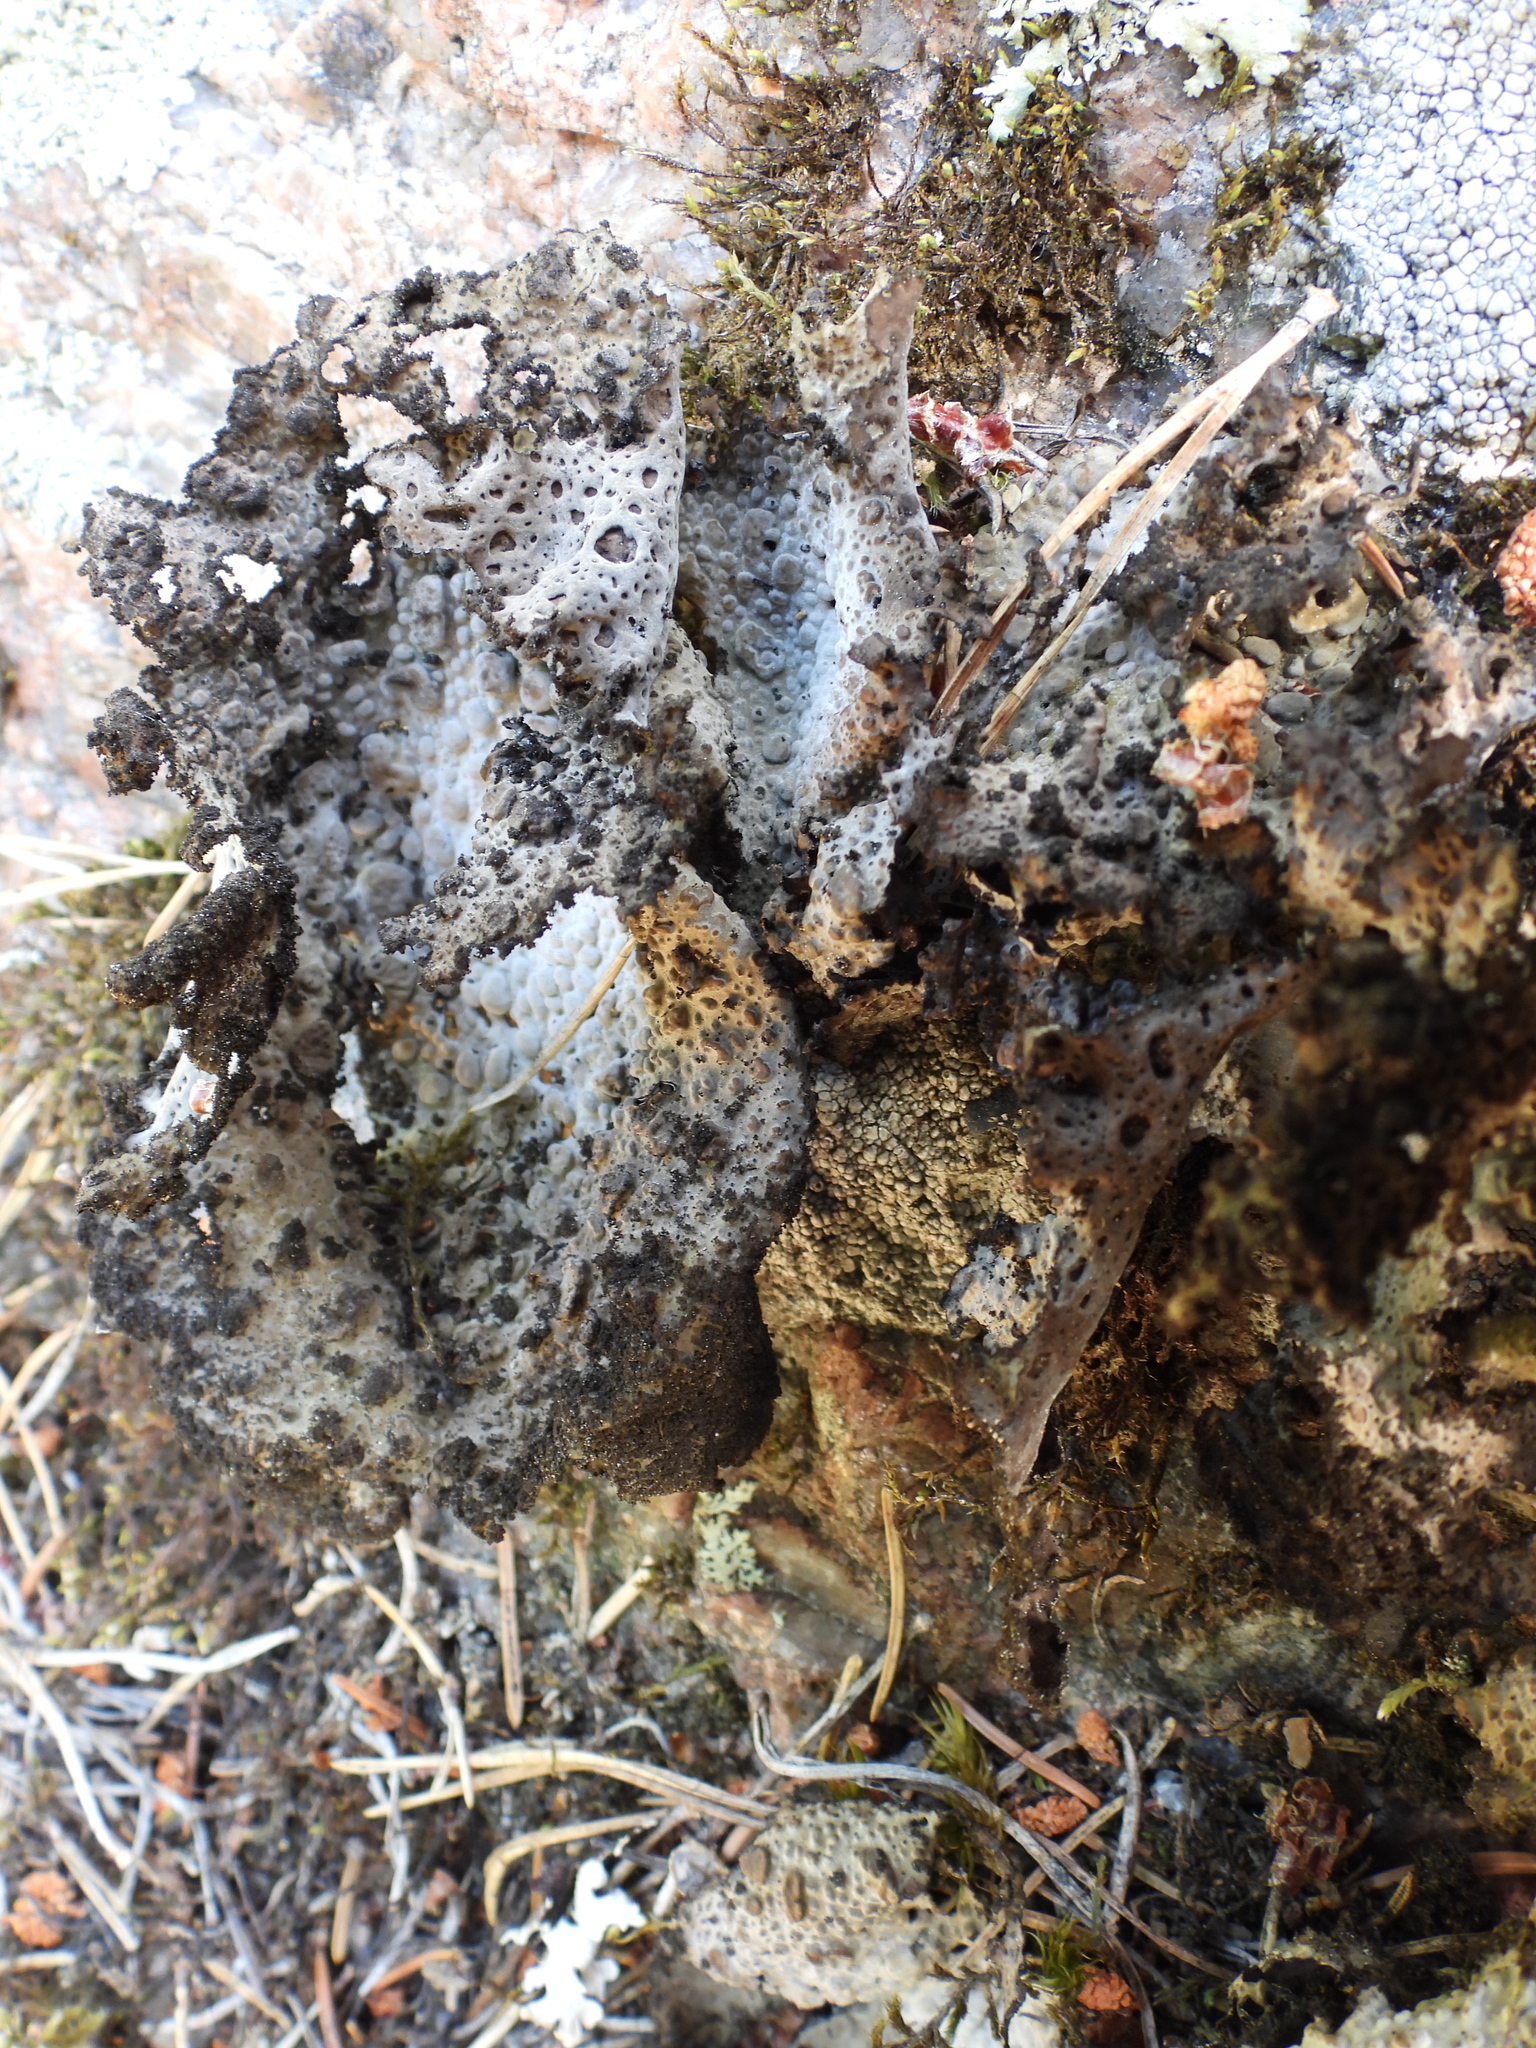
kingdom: Fungi
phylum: Ascomycota
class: Lecanoromycetes
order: Umbilicariales
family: Umbilicariaceae
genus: Lasallia
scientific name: Lasallia pustulata
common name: Blistered toadskin lichen
